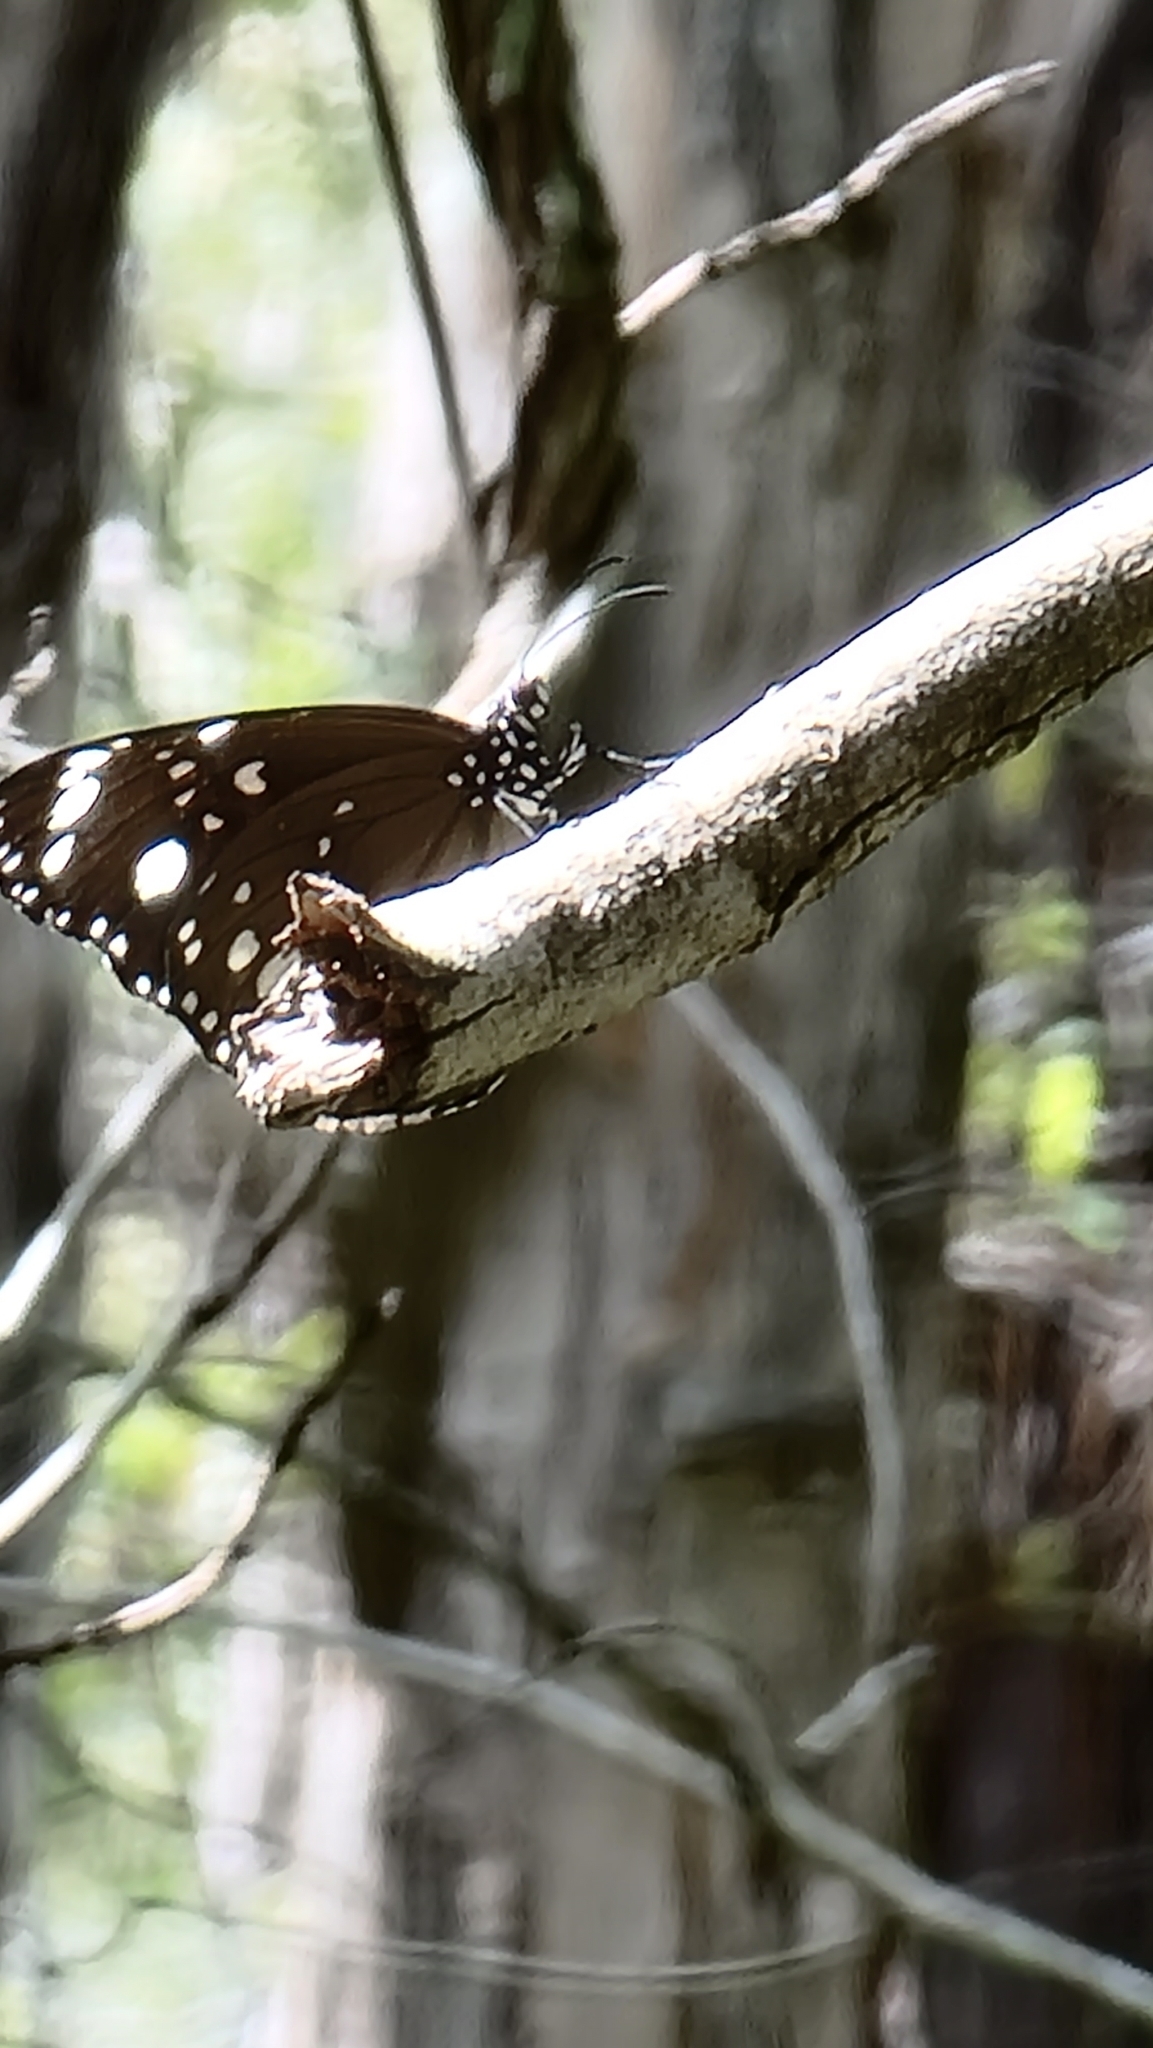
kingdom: Animalia
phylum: Arthropoda
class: Insecta
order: Lepidoptera
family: Nymphalidae
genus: Euploea
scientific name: Euploea core
